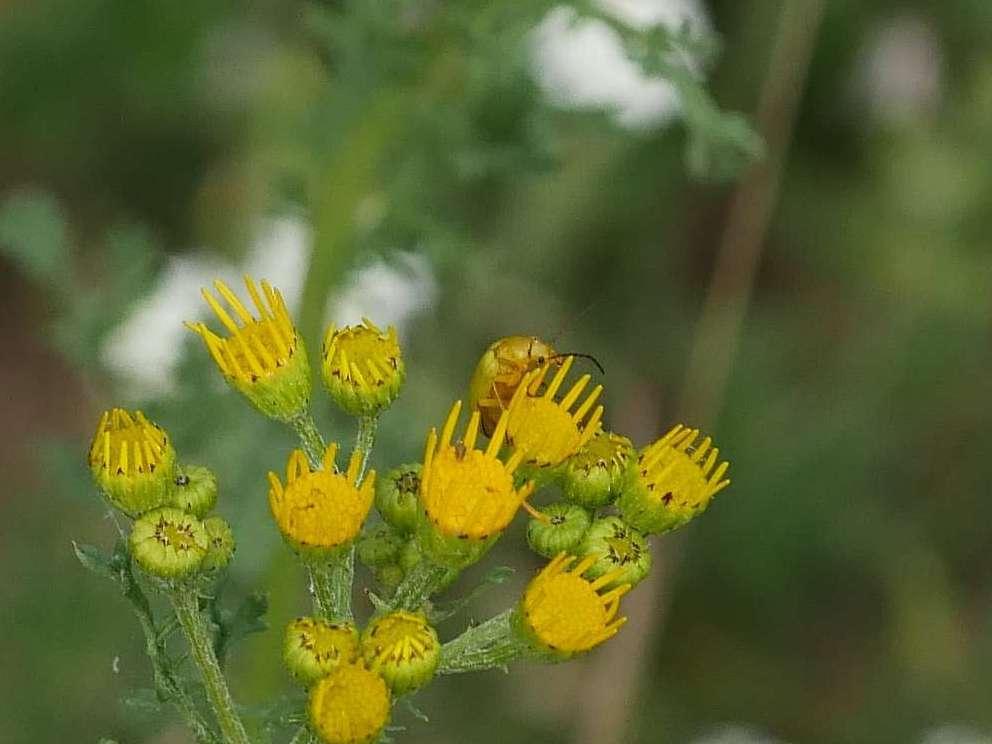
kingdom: Animalia
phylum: Arthropoda
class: Insecta
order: Coleoptera
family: Tenebrionidae
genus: Cteniopus
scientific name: Cteniopus sulphureus
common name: Sulphur beetle
